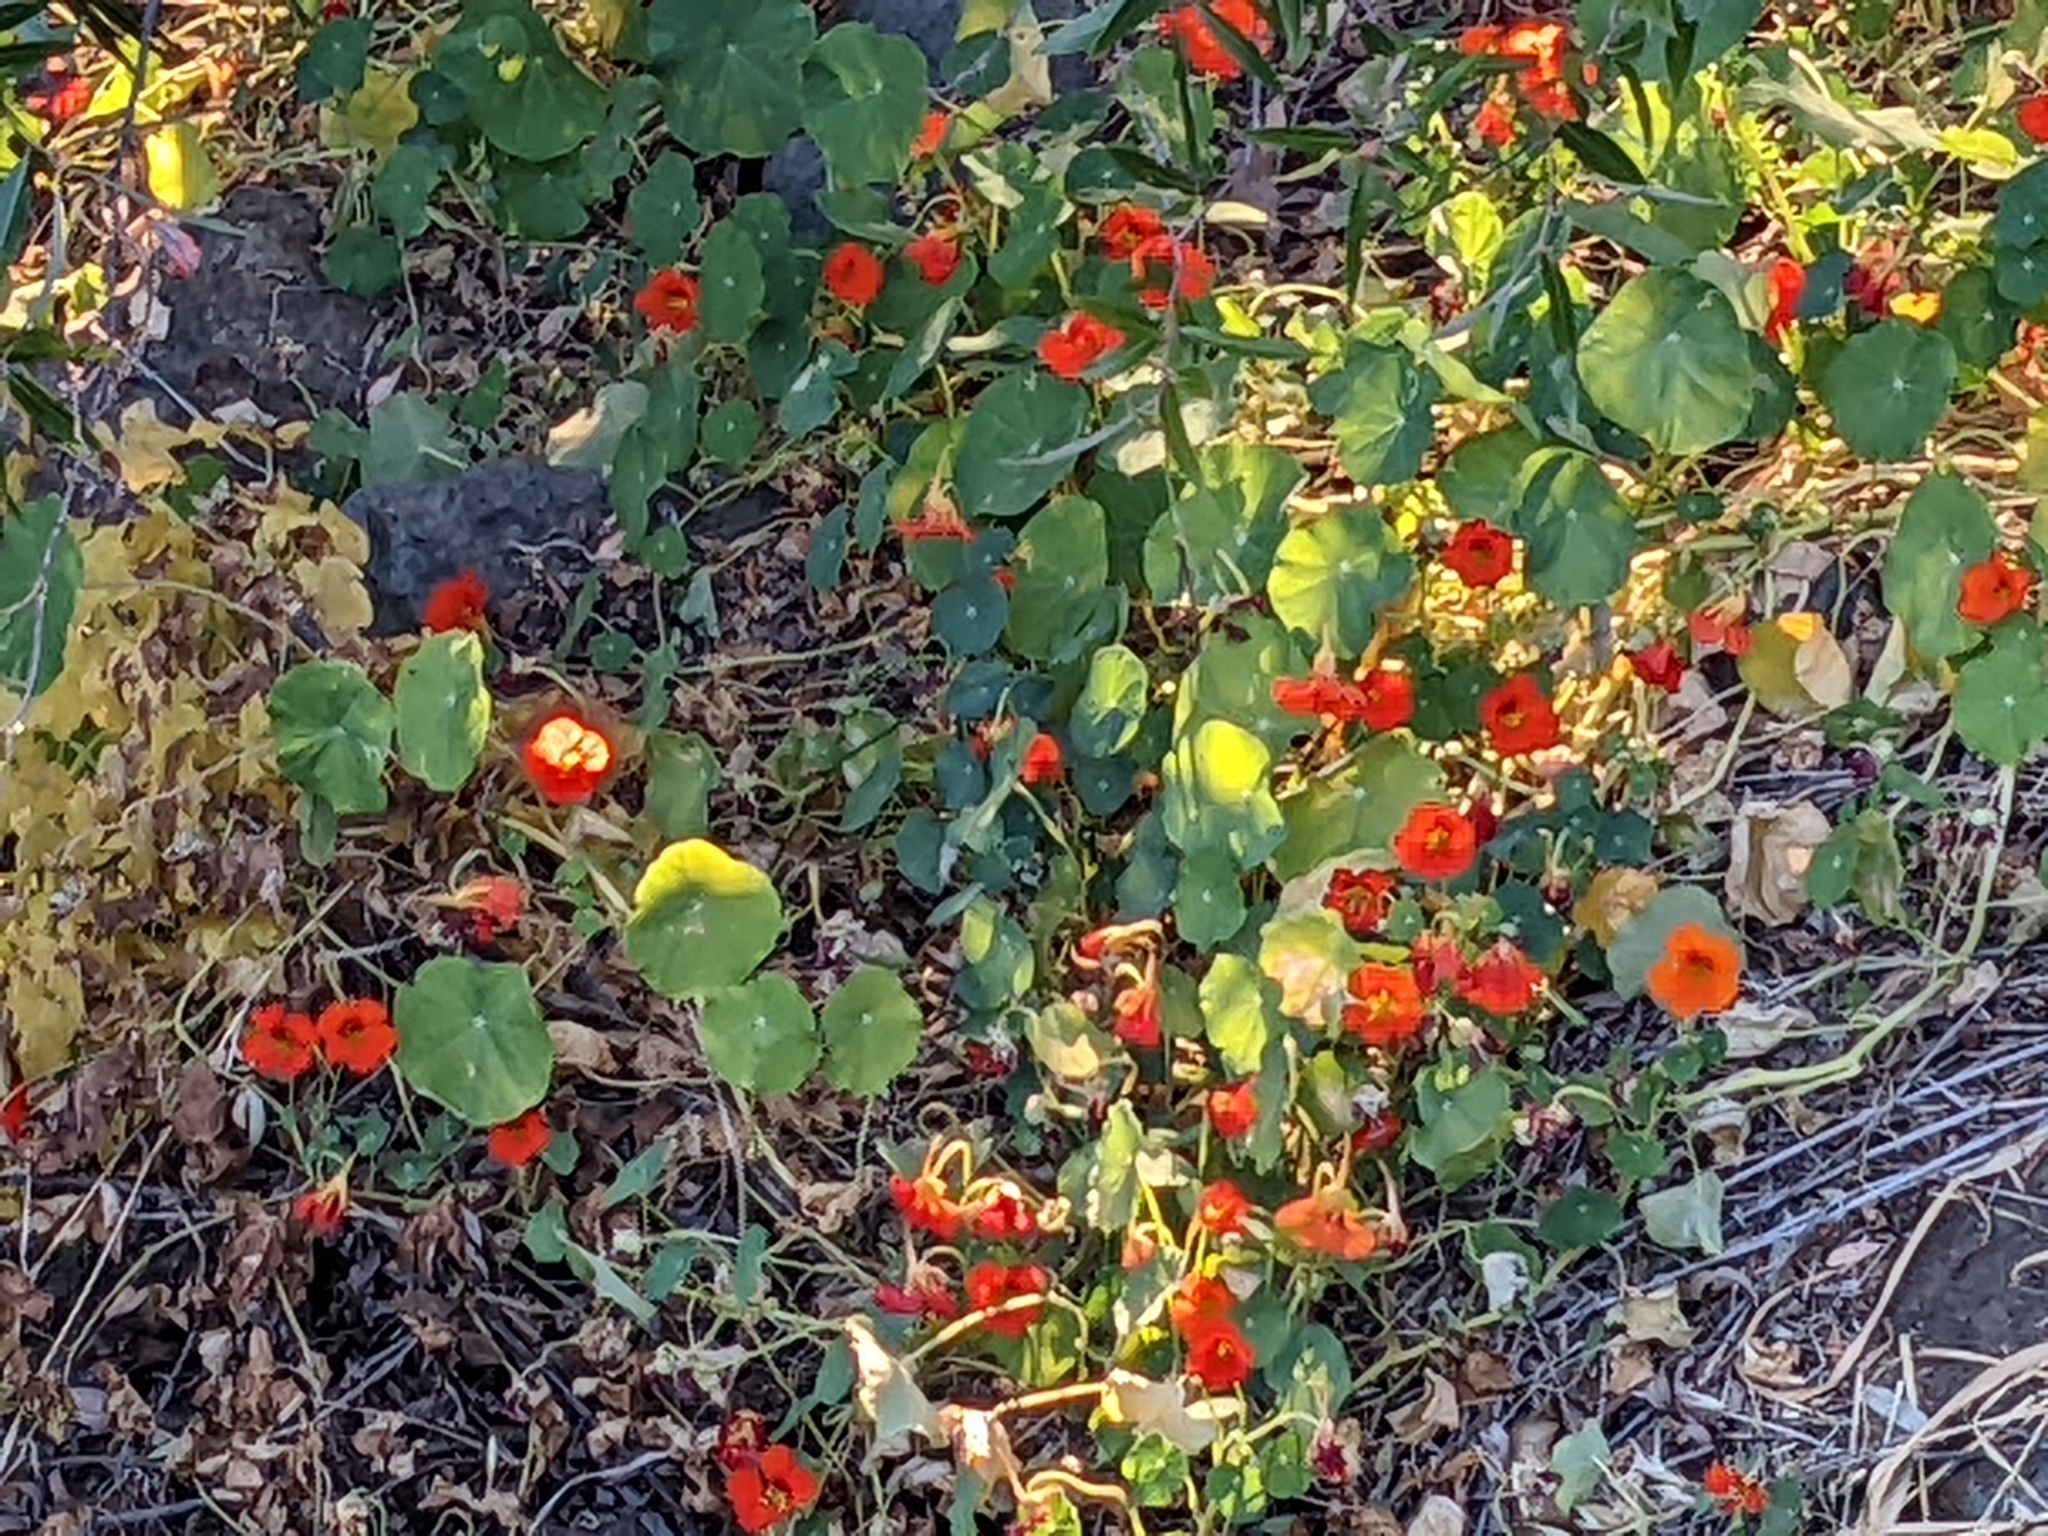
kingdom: Plantae
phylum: Tracheophyta
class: Magnoliopsida
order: Brassicales
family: Tropaeolaceae
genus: Tropaeolum
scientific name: Tropaeolum majus
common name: Nasturtium
